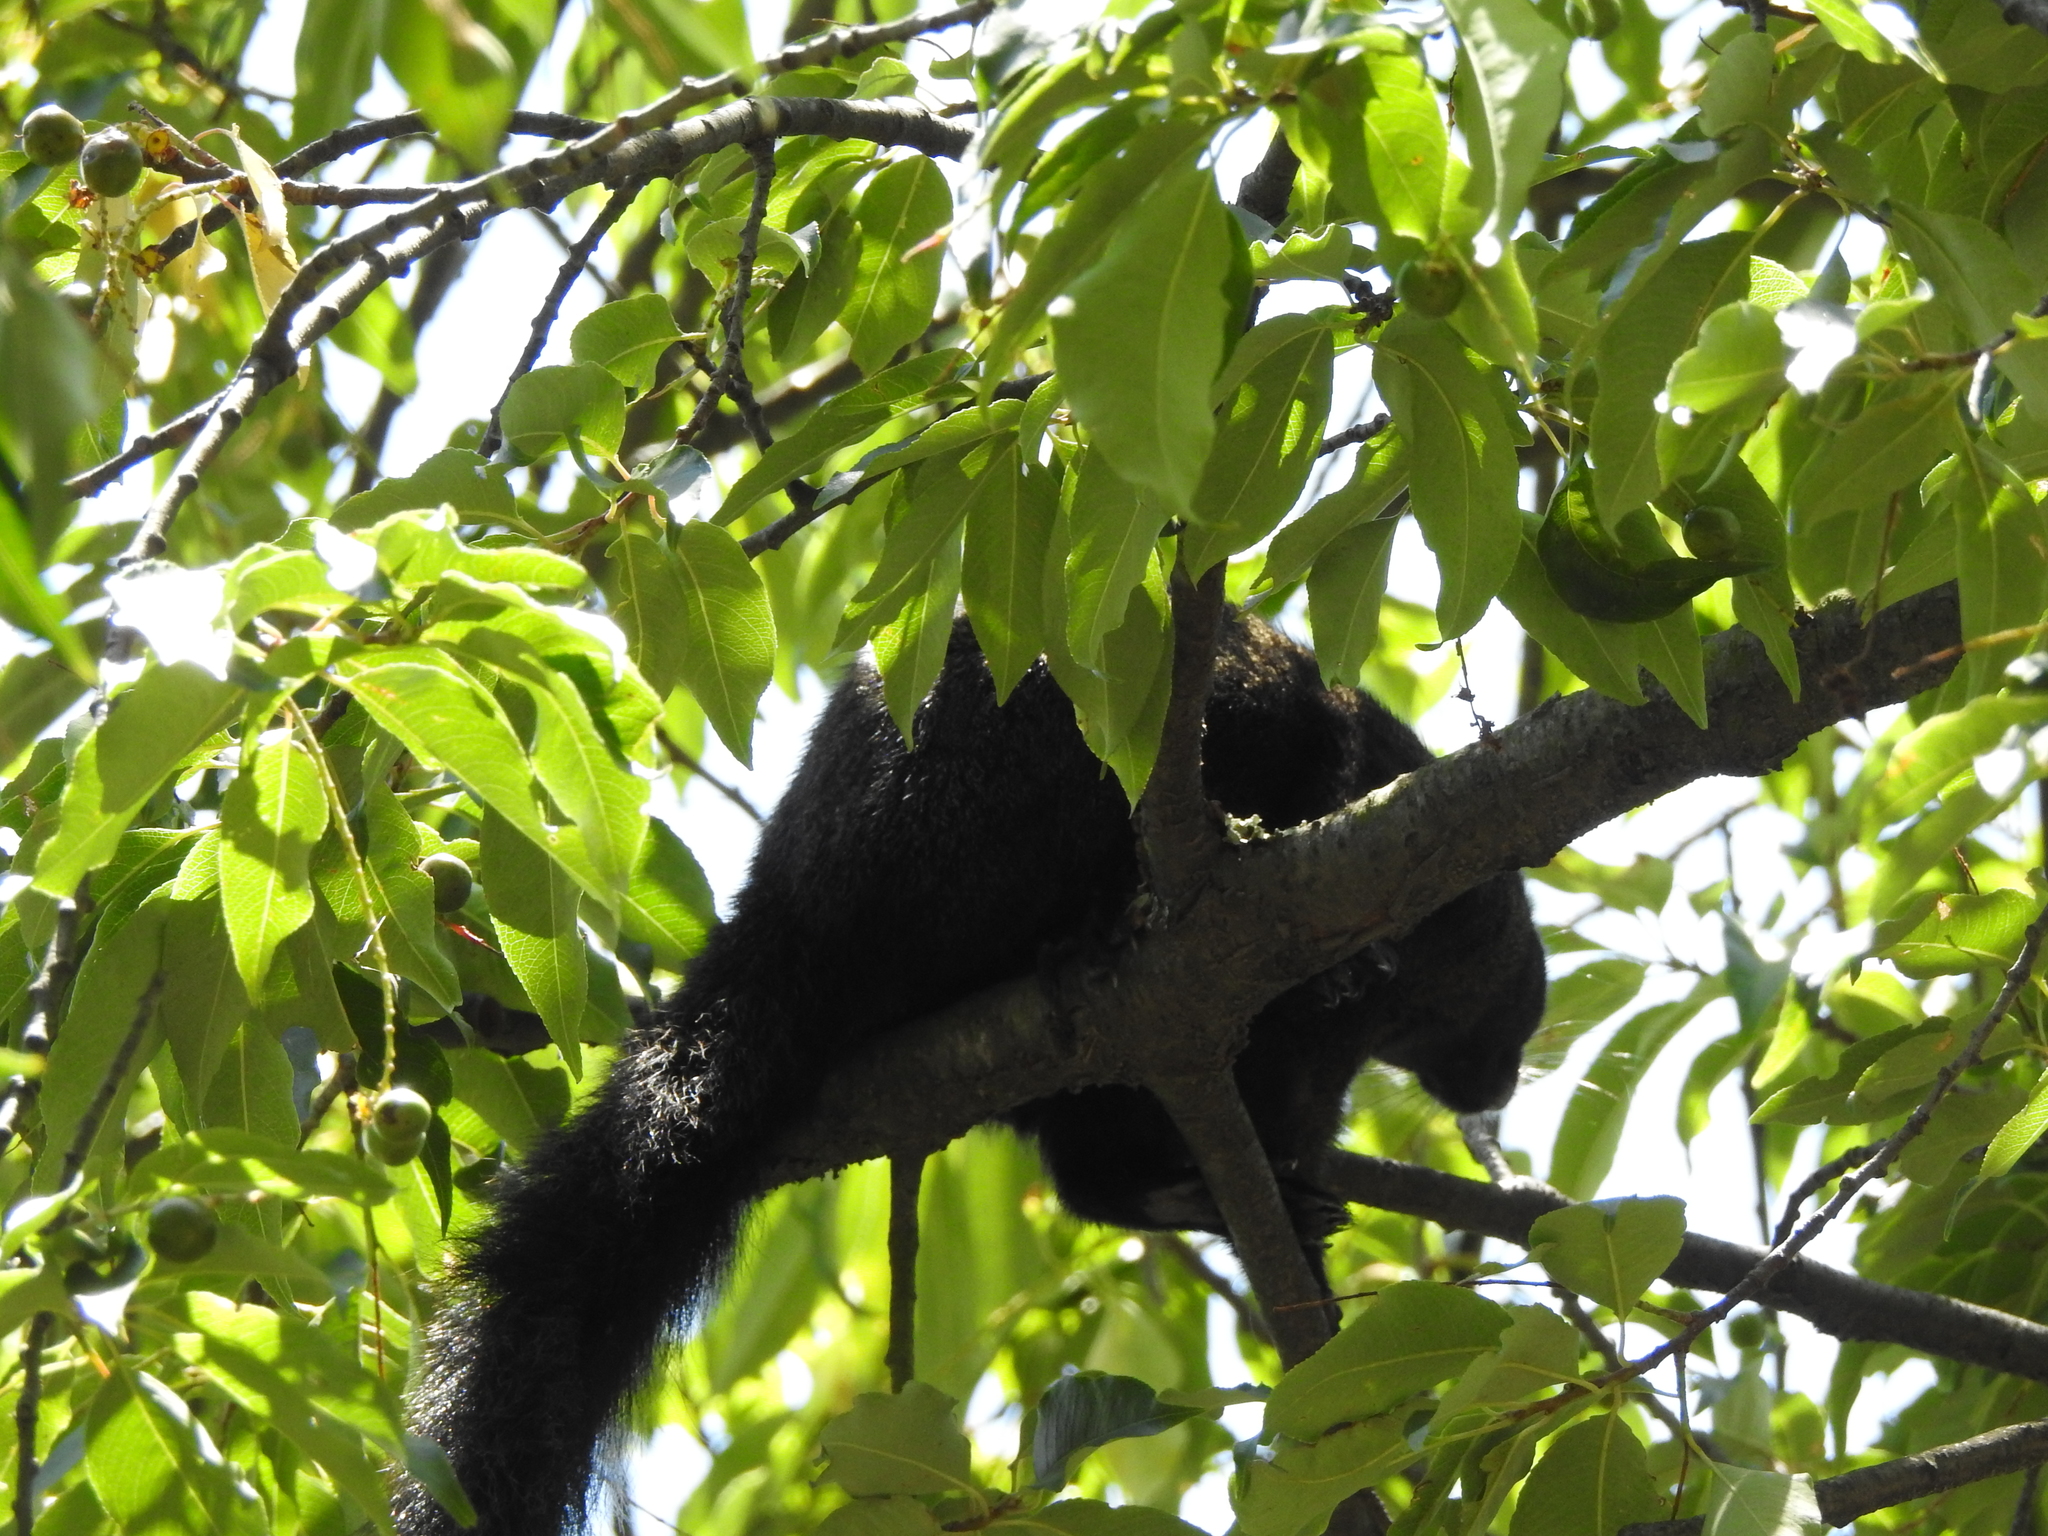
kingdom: Animalia
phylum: Chordata
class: Mammalia
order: Rodentia
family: Sciuridae
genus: Sciurus
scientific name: Sciurus aureogaster
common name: Red-bellied squirrel
